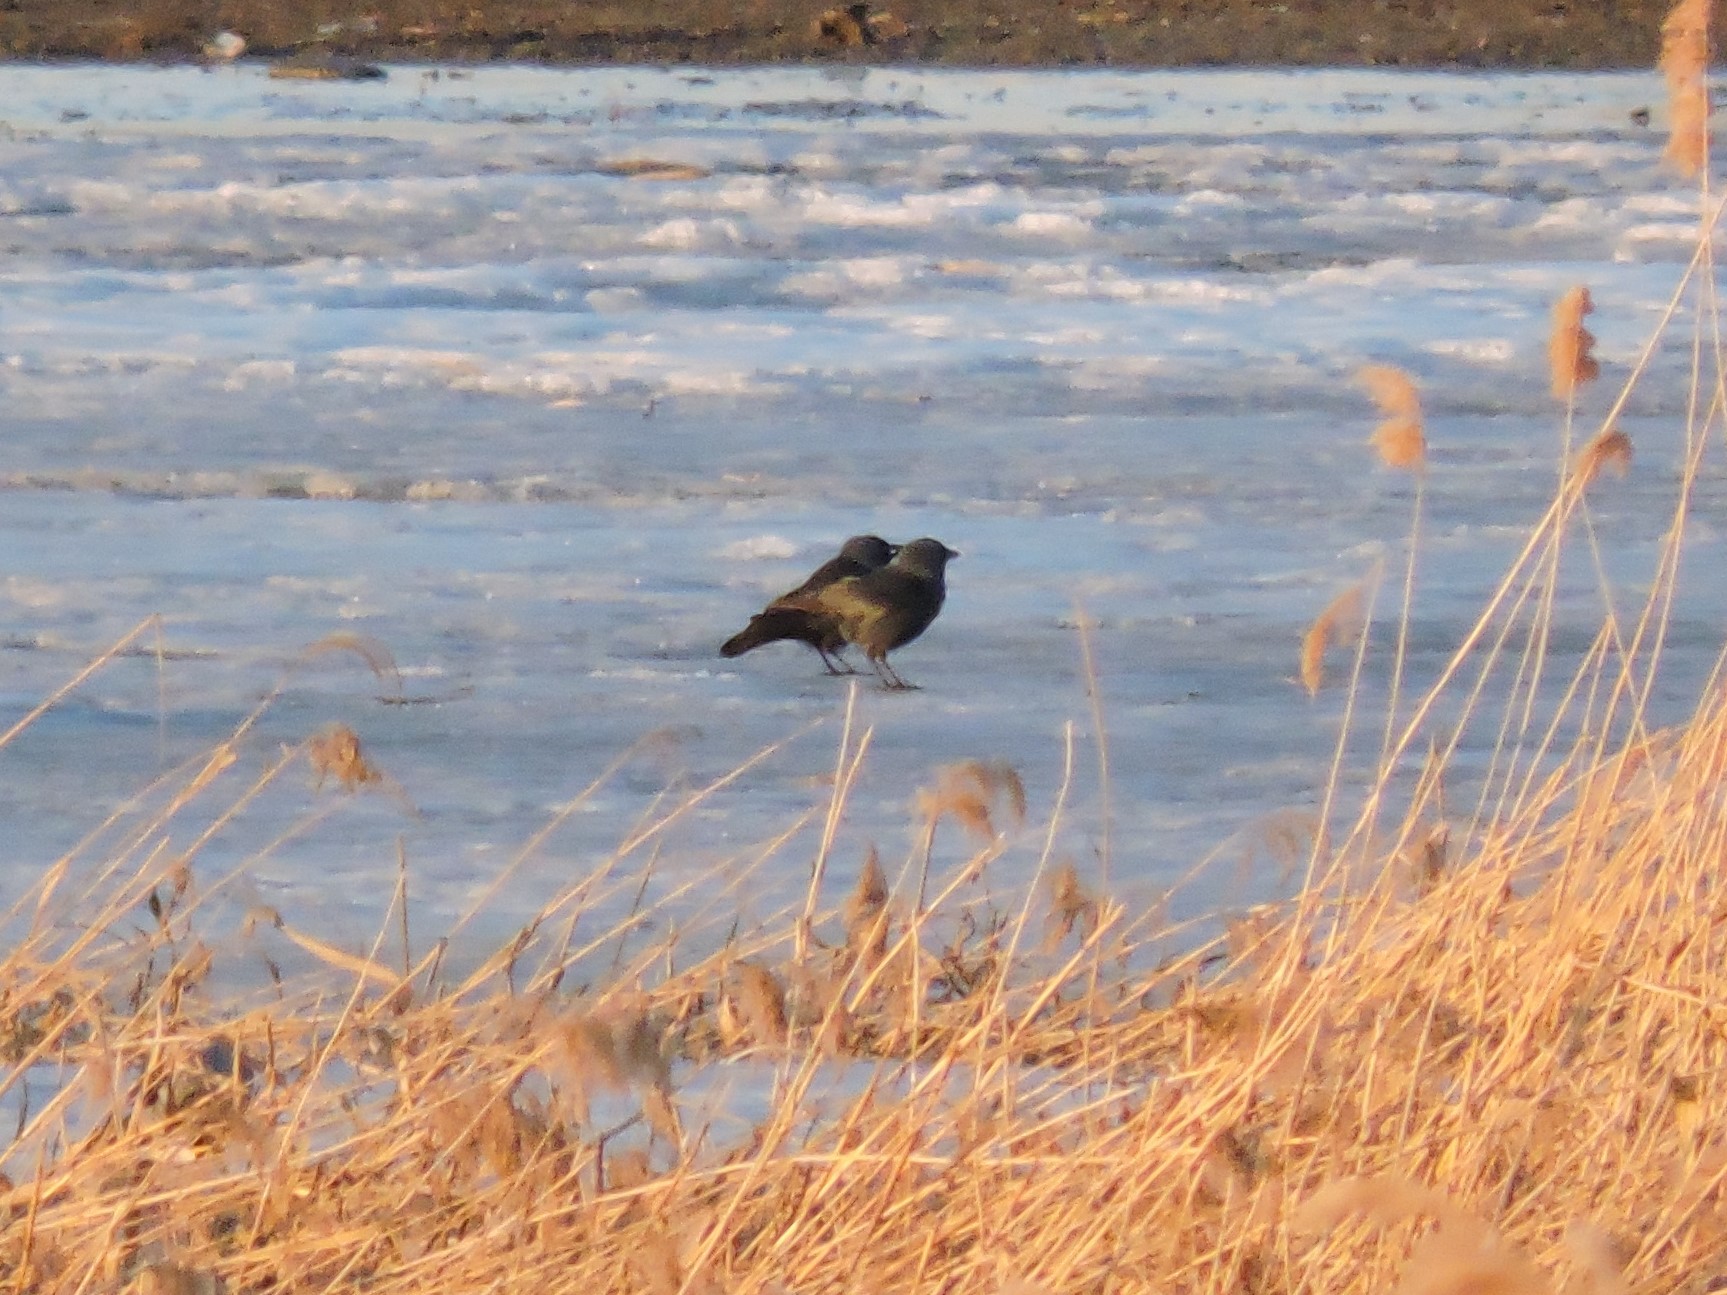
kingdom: Animalia
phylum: Chordata
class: Aves
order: Passeriformes
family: Corvidae
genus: Coloeus
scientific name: Coloeus monedula
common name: Western jackdaw
